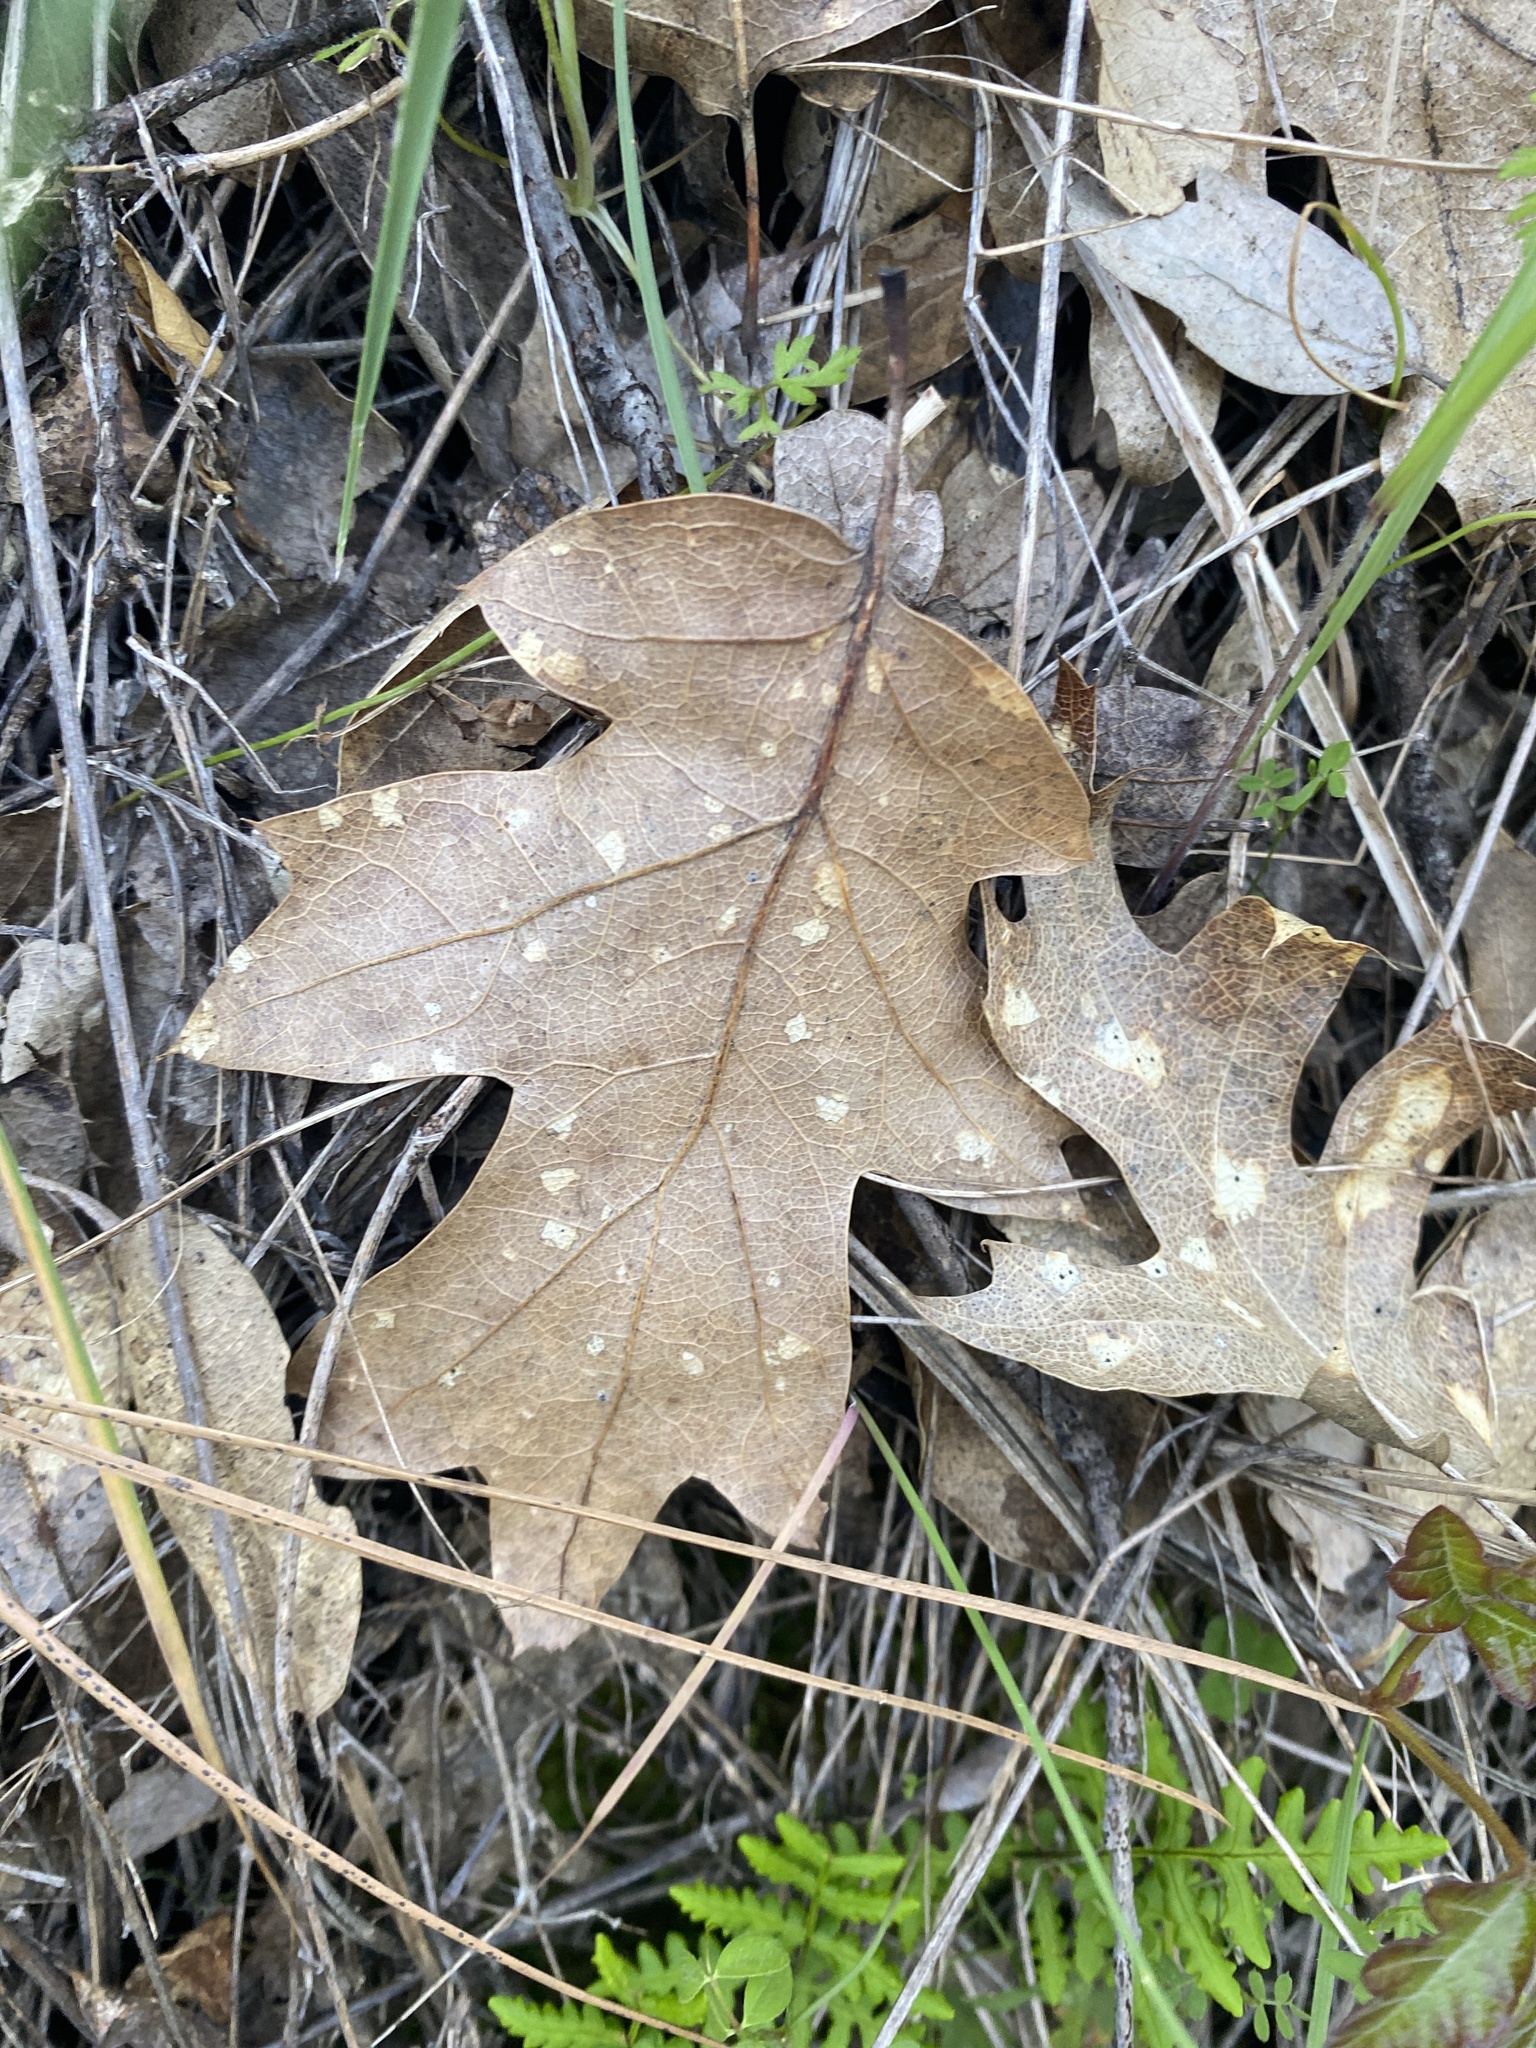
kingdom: Plantae
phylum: Tracheophyta
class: Magnoliopsida
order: Fagales
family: Fagaceae
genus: Quercus
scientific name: Quercus kelloggii
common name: California black oak
